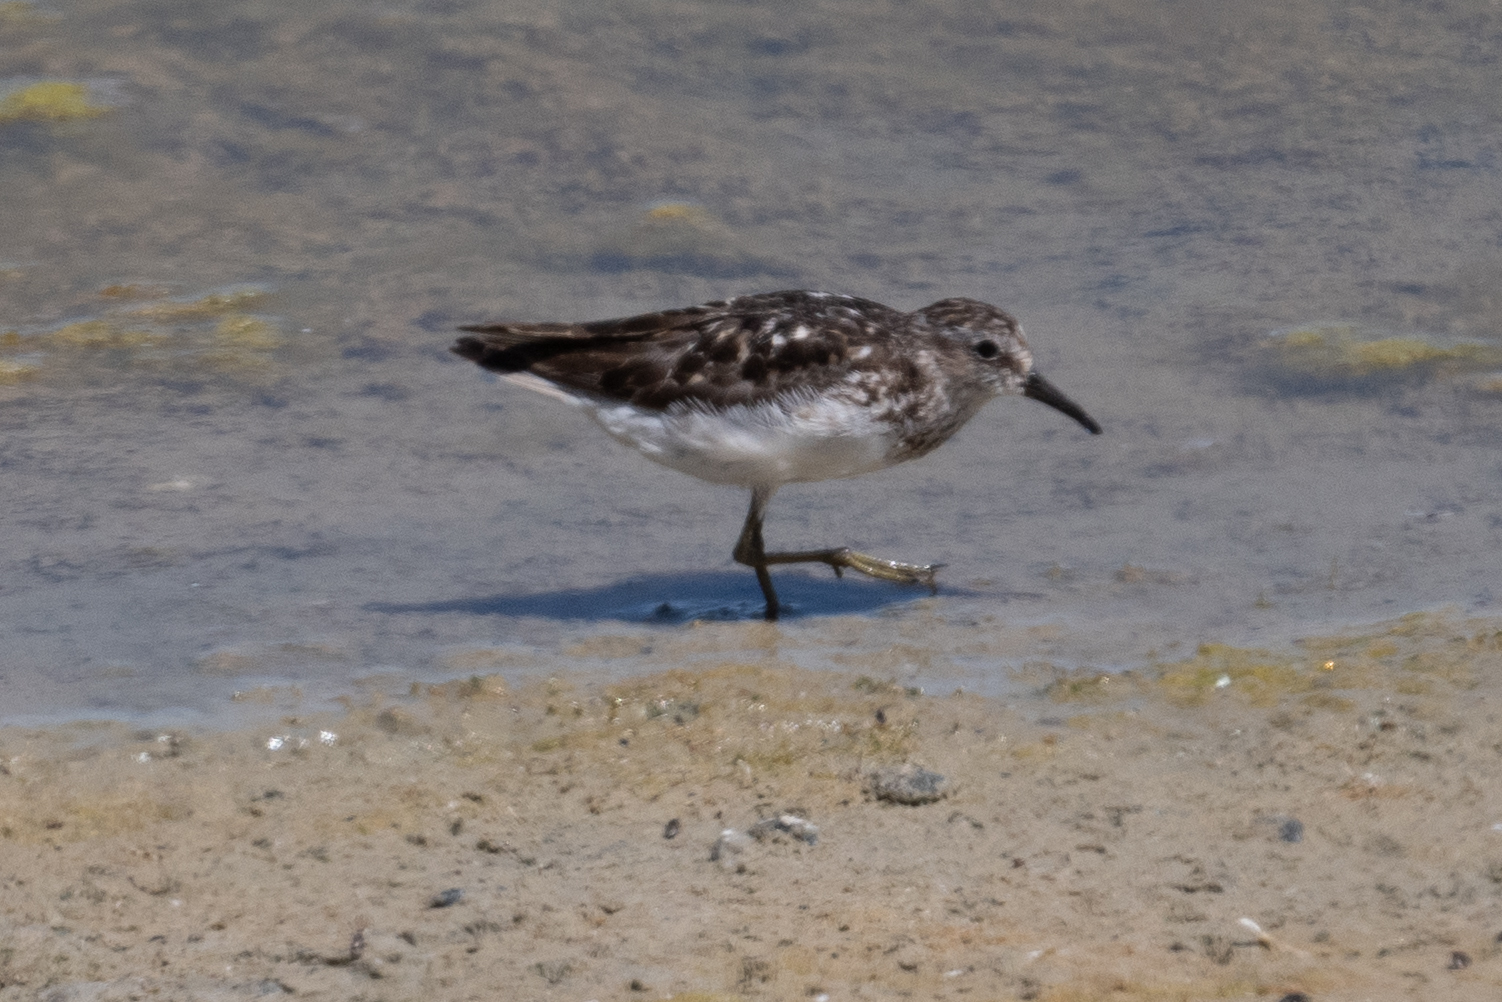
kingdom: Animalia
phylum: Chordata
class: Aves
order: Charadriiformes
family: Scolopacidae
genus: Calidris
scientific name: Calidris minutilla
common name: Least sandpiper
